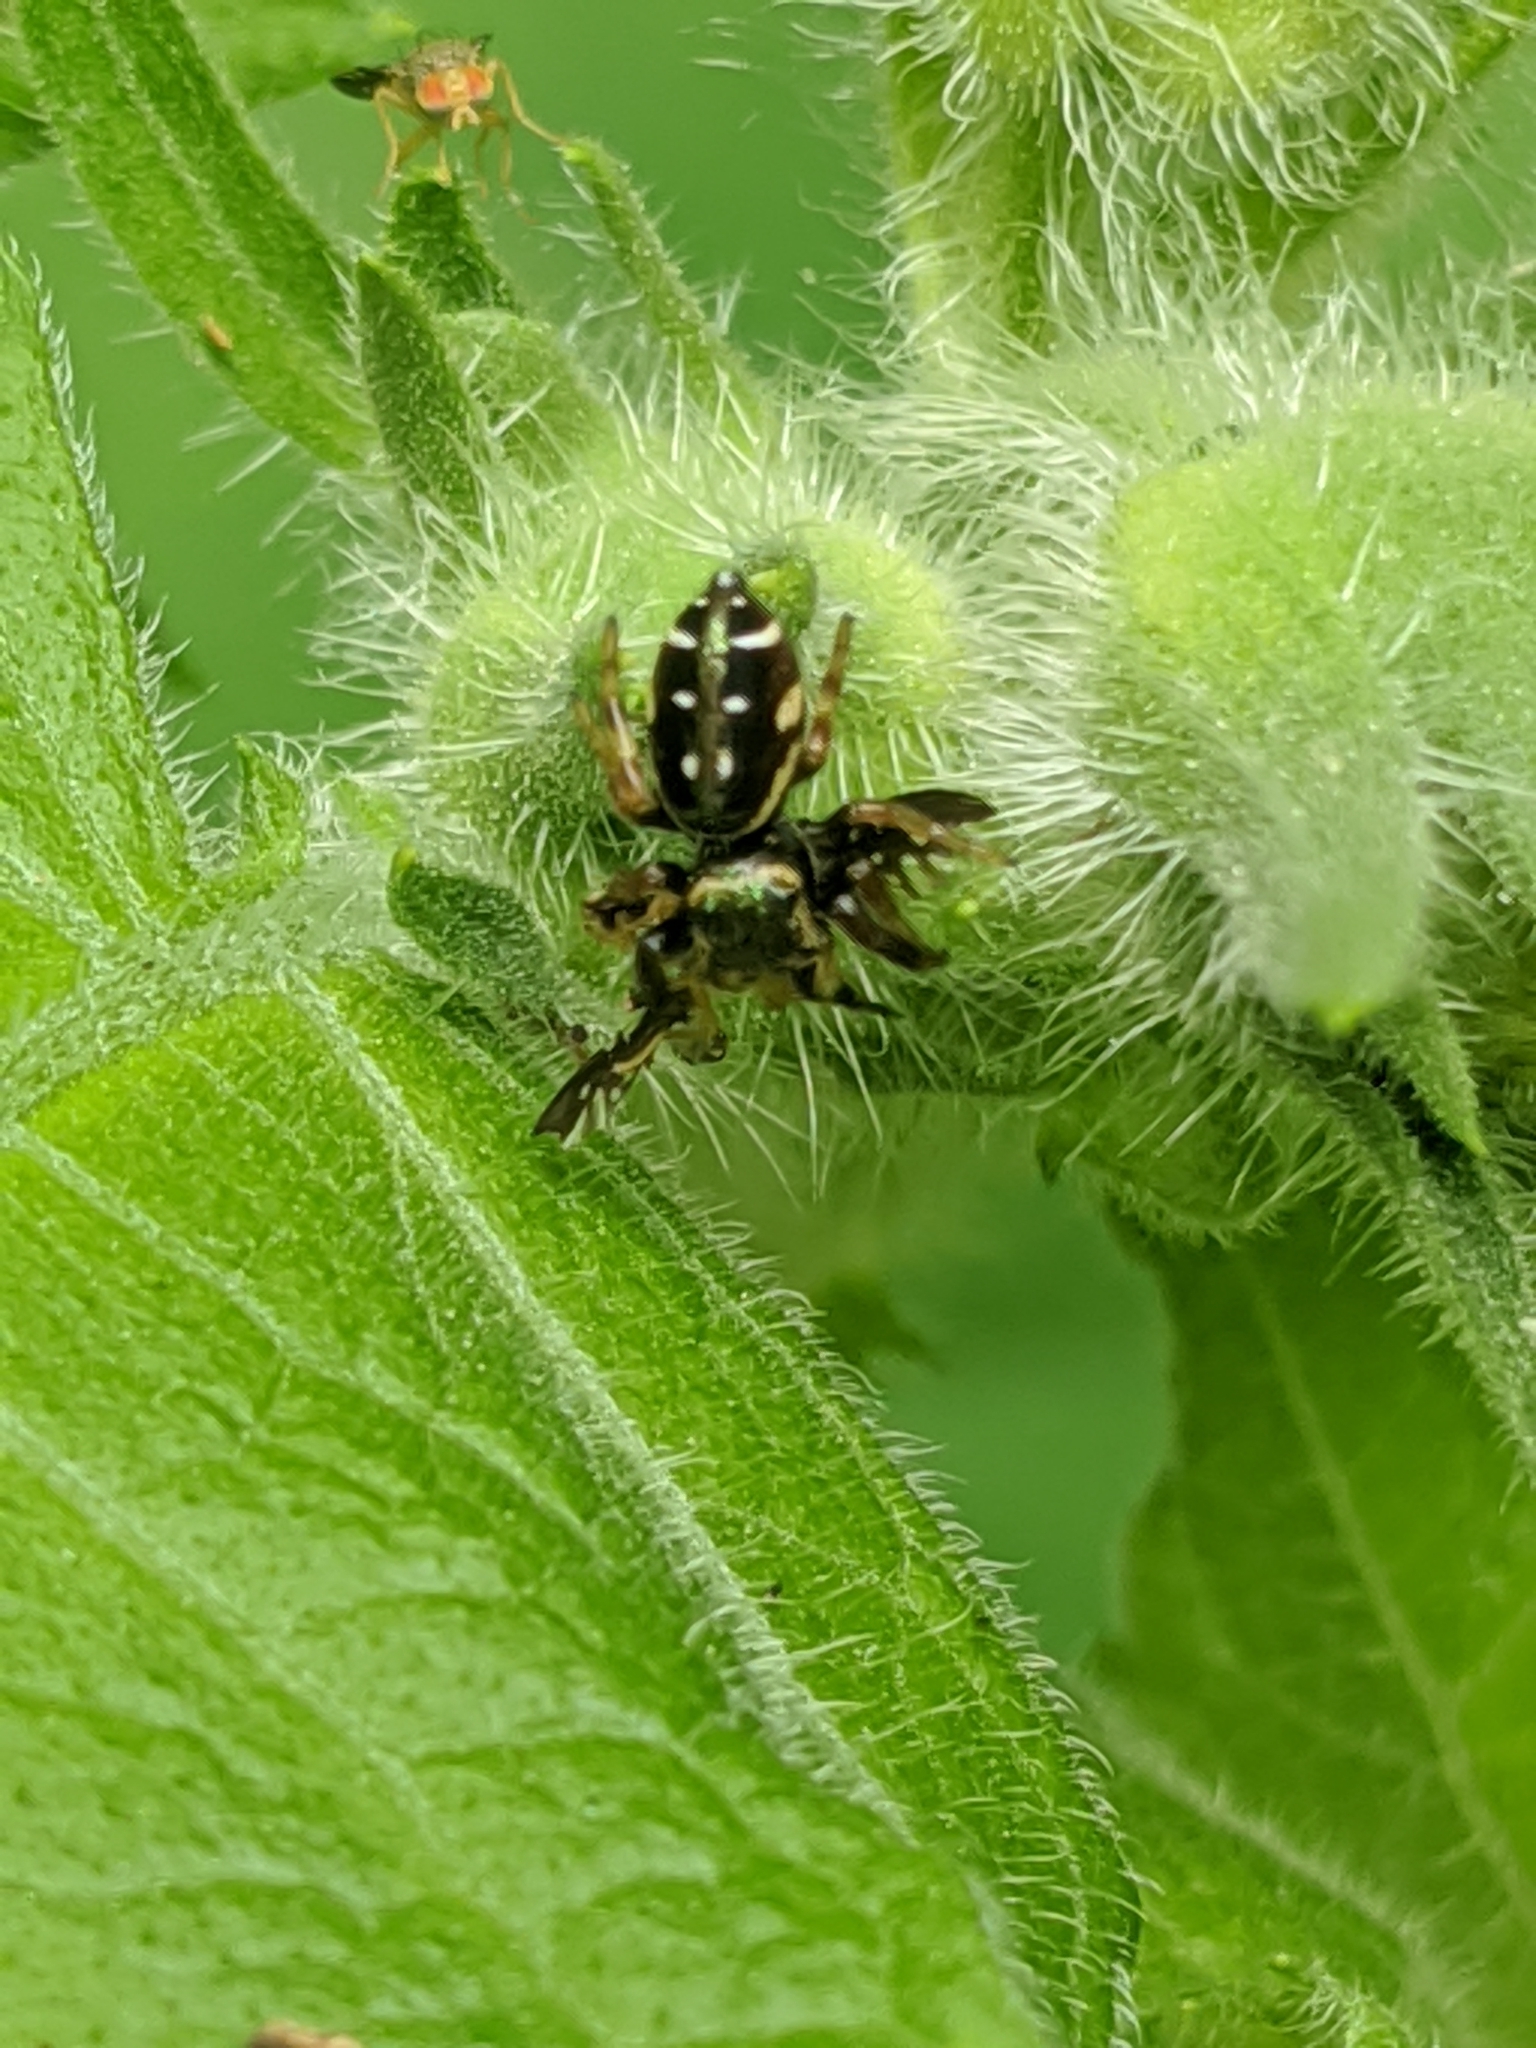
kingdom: Animalia
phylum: Arthropoda
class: Arachnida
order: Araneae
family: Salticidae
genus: Paraphidippus
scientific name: Paraphidippus aurantius
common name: Jumping spiders
